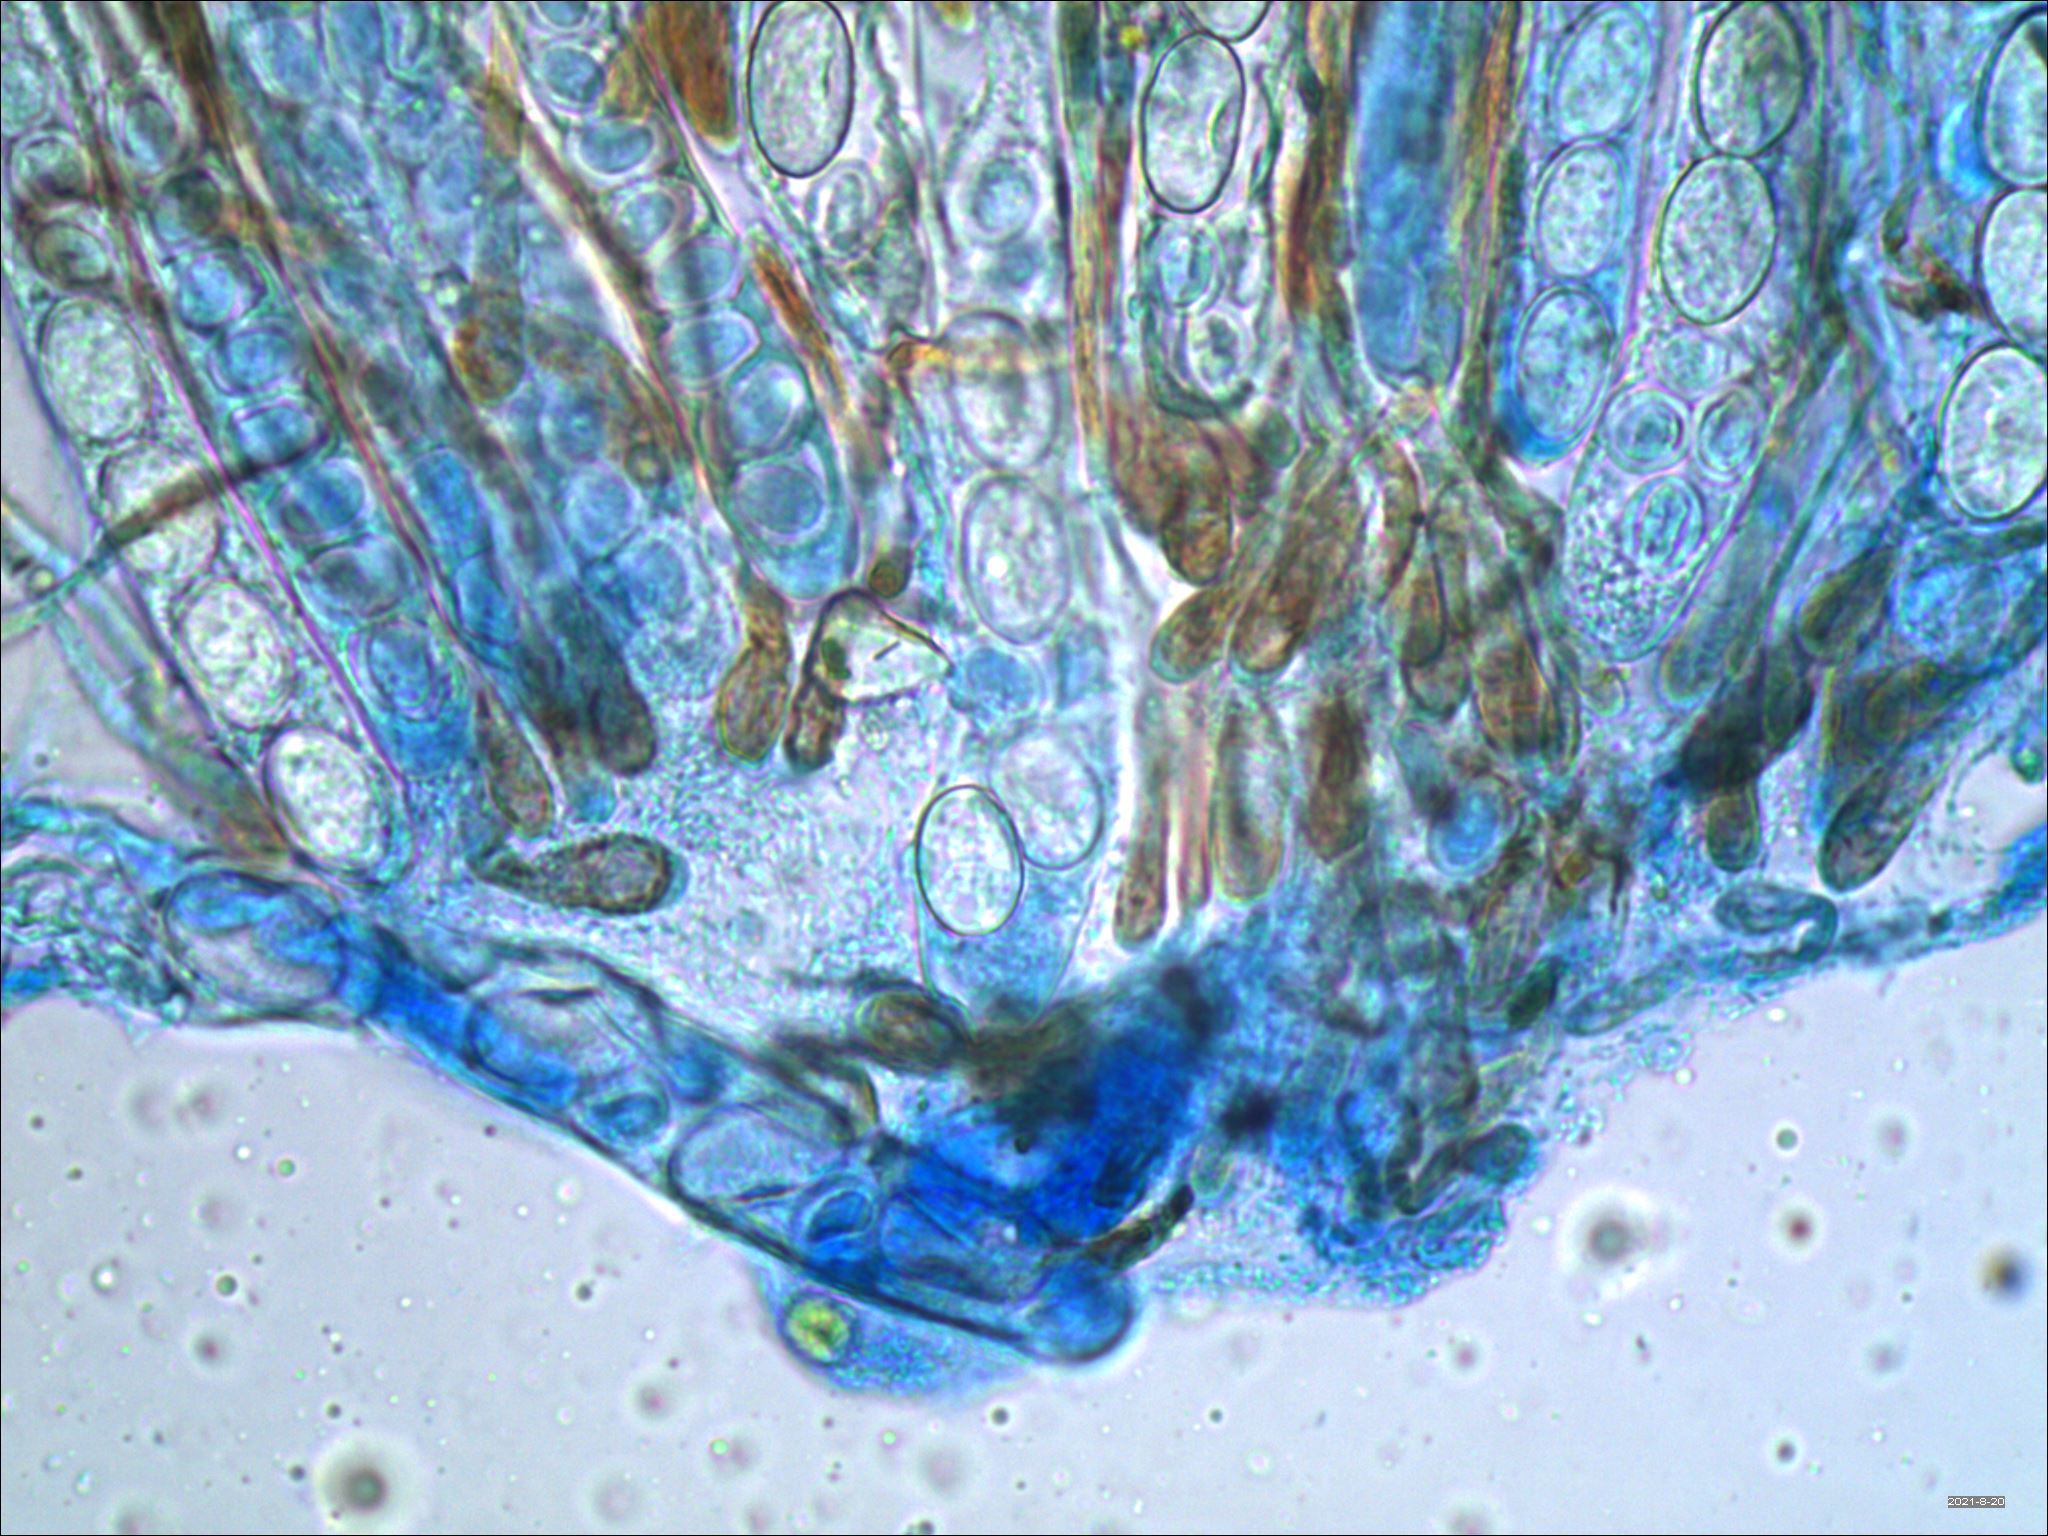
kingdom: Fungi
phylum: Ascomycota
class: Pezizomycetes
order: Pezizales
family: Pyronemataceae
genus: Scutellinia
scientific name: Scutellinia vitreola
